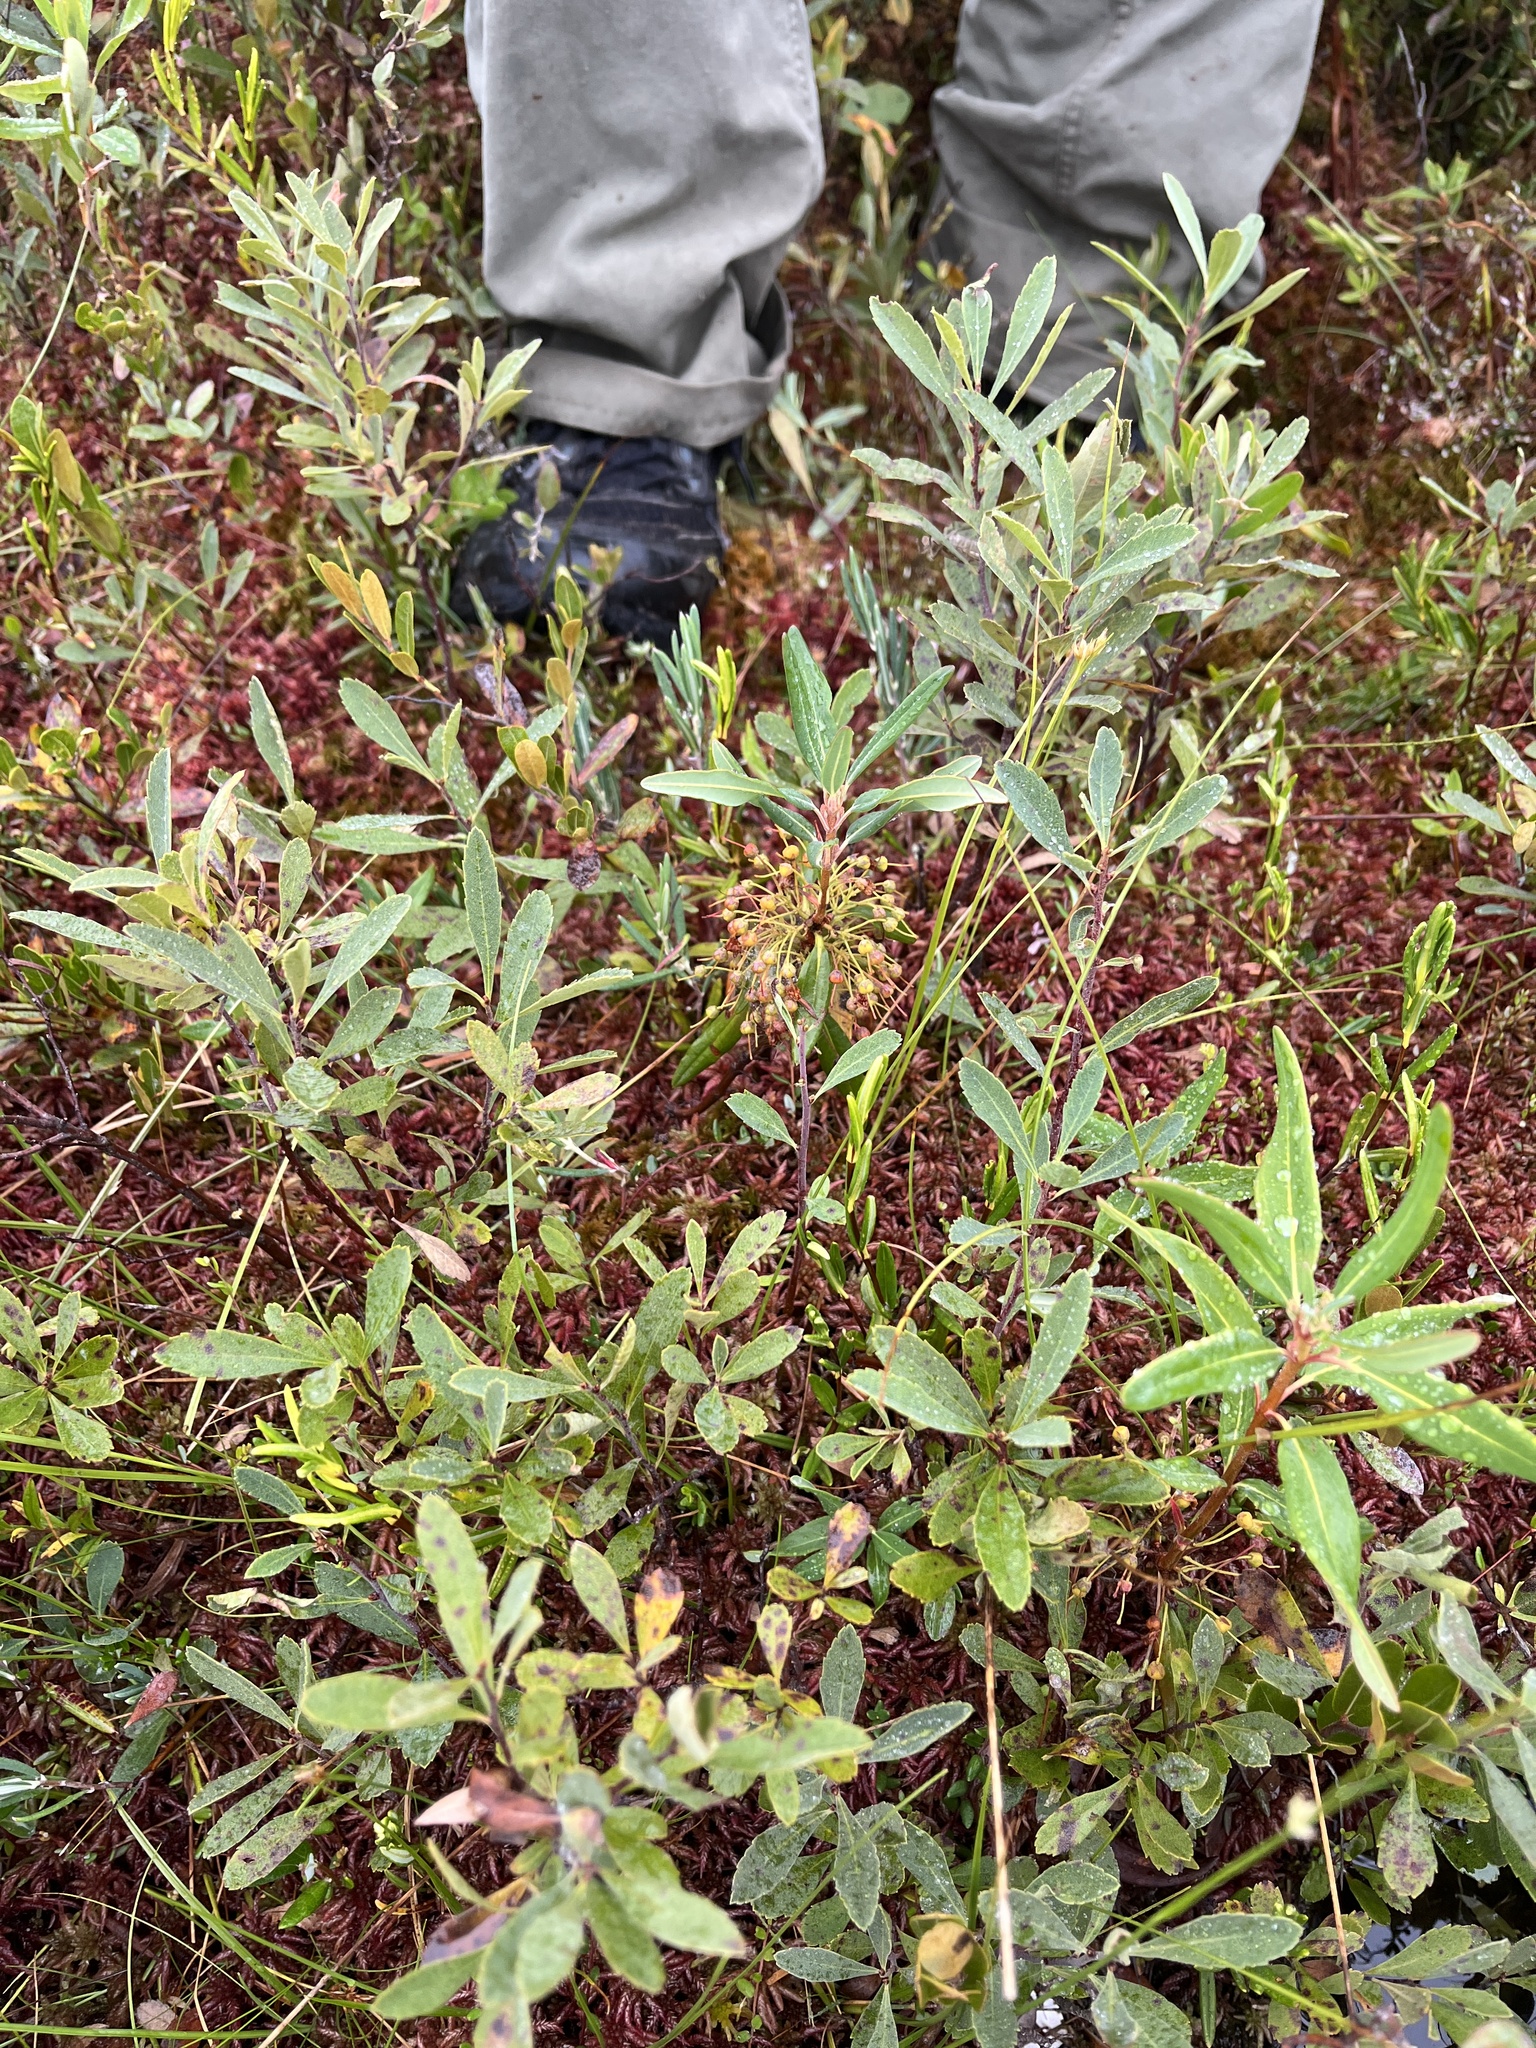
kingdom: Plantae
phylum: Tracheophyta
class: Magnoliopsida
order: Ericales
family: Ericaceae
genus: Kalmia
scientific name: Kalmia angustifolia
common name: Sheep-laurel
